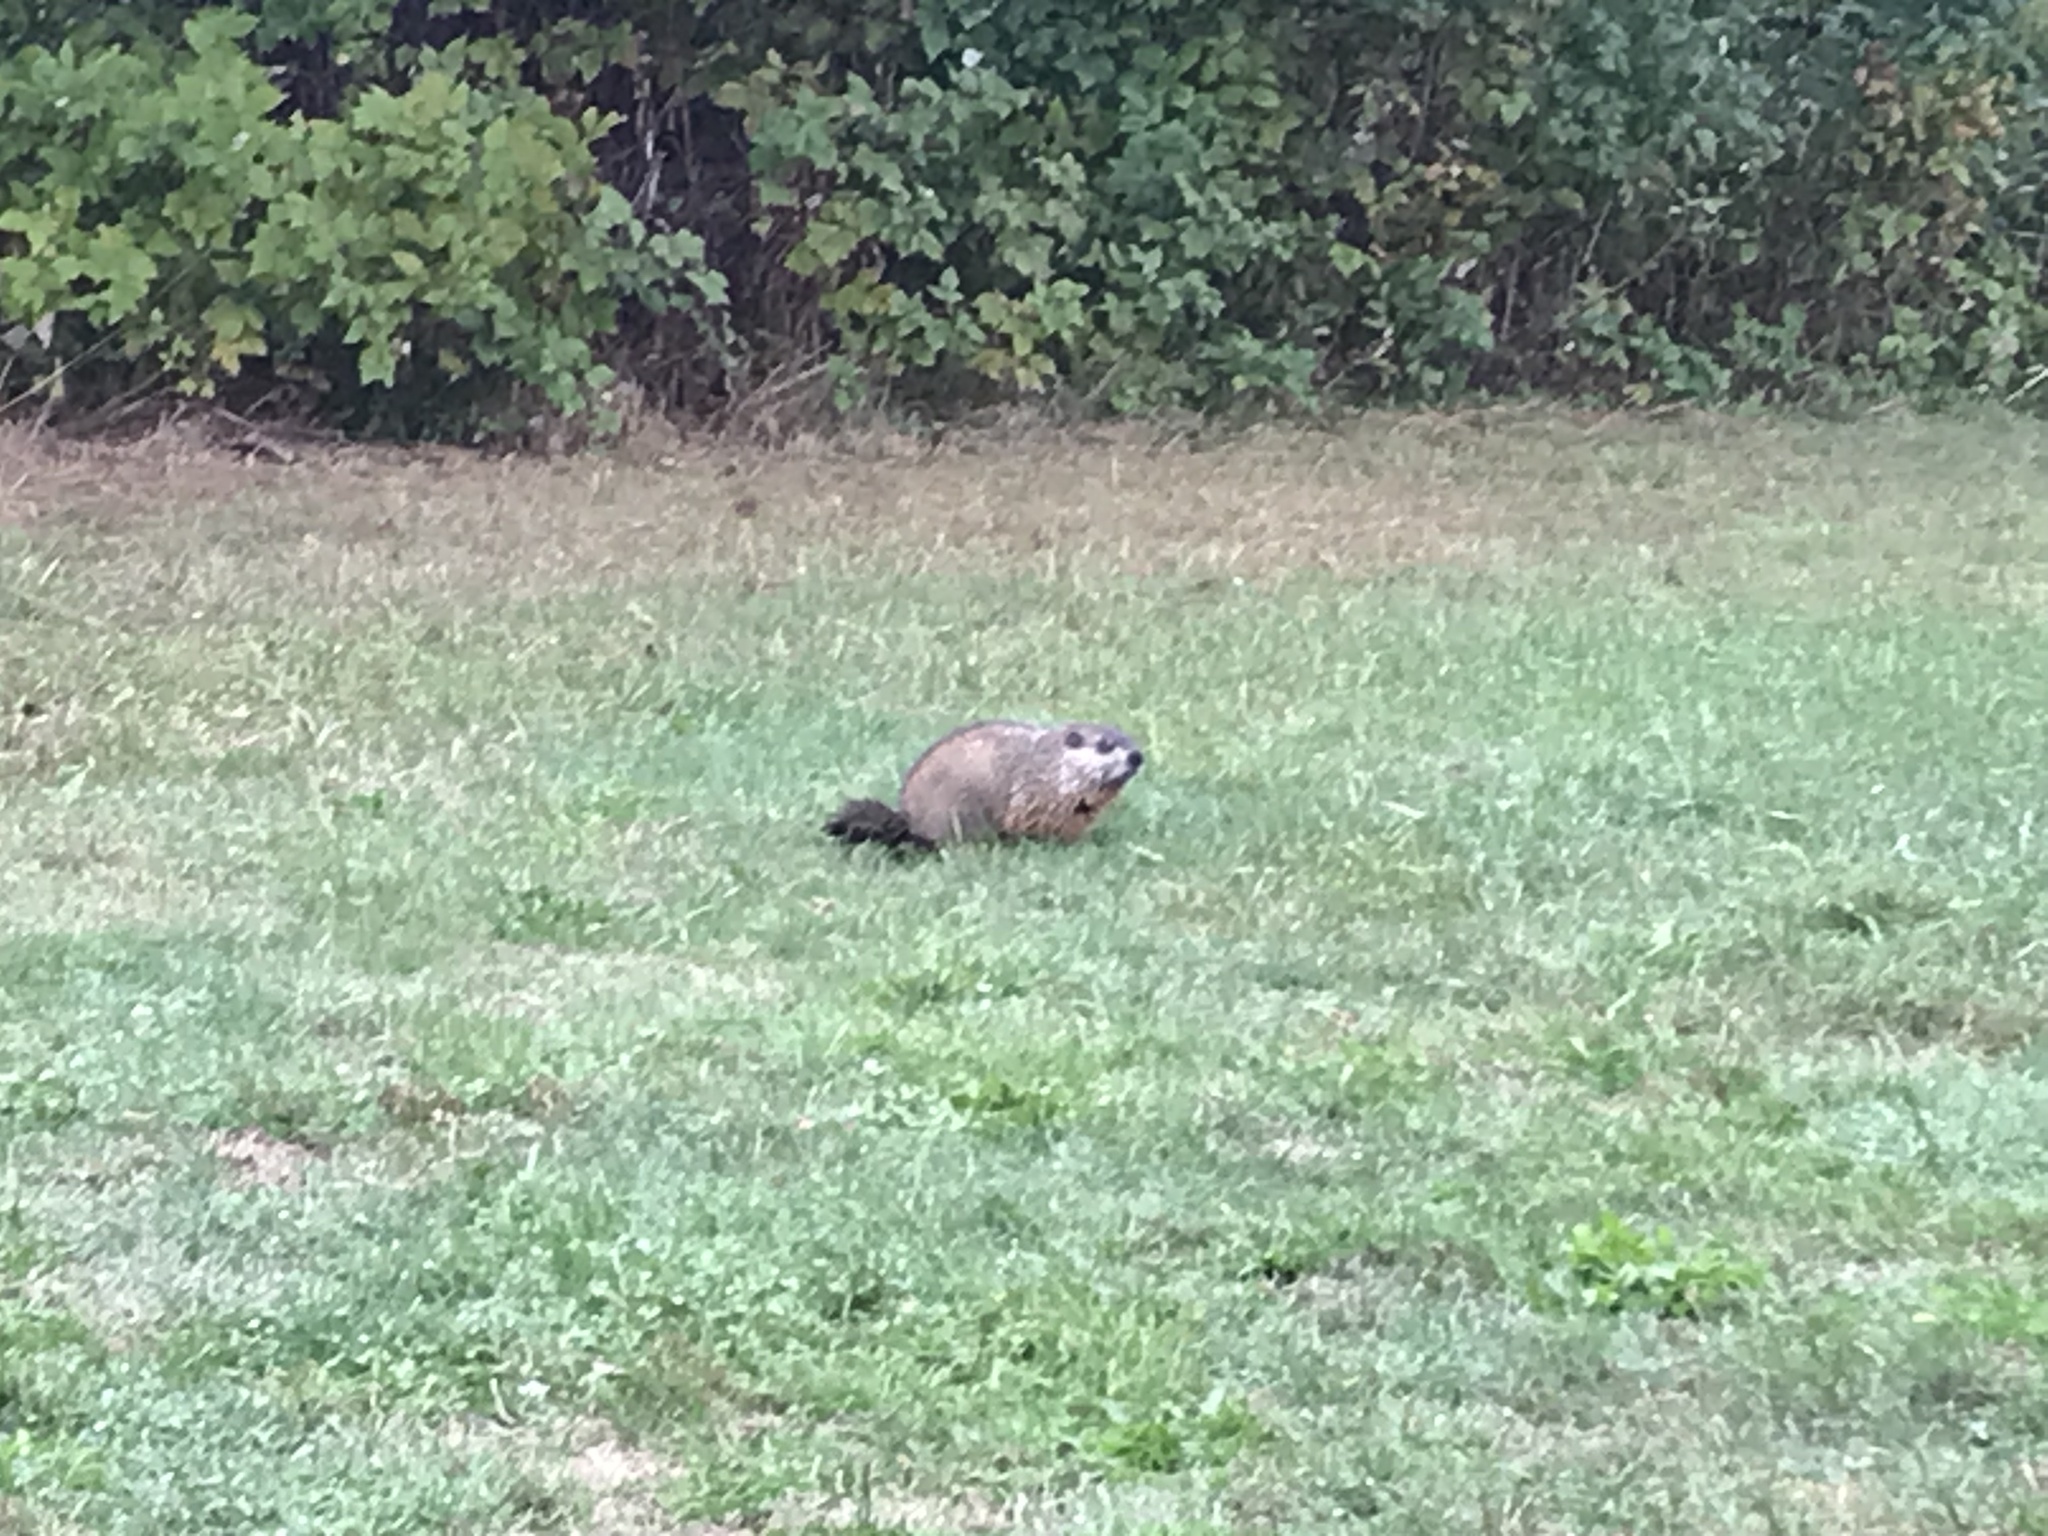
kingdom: Animalia
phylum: Chordata
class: Mammalia
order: Rodentia
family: Sciuridae
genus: Marmota
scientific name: Marmota monax
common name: Groundhog
